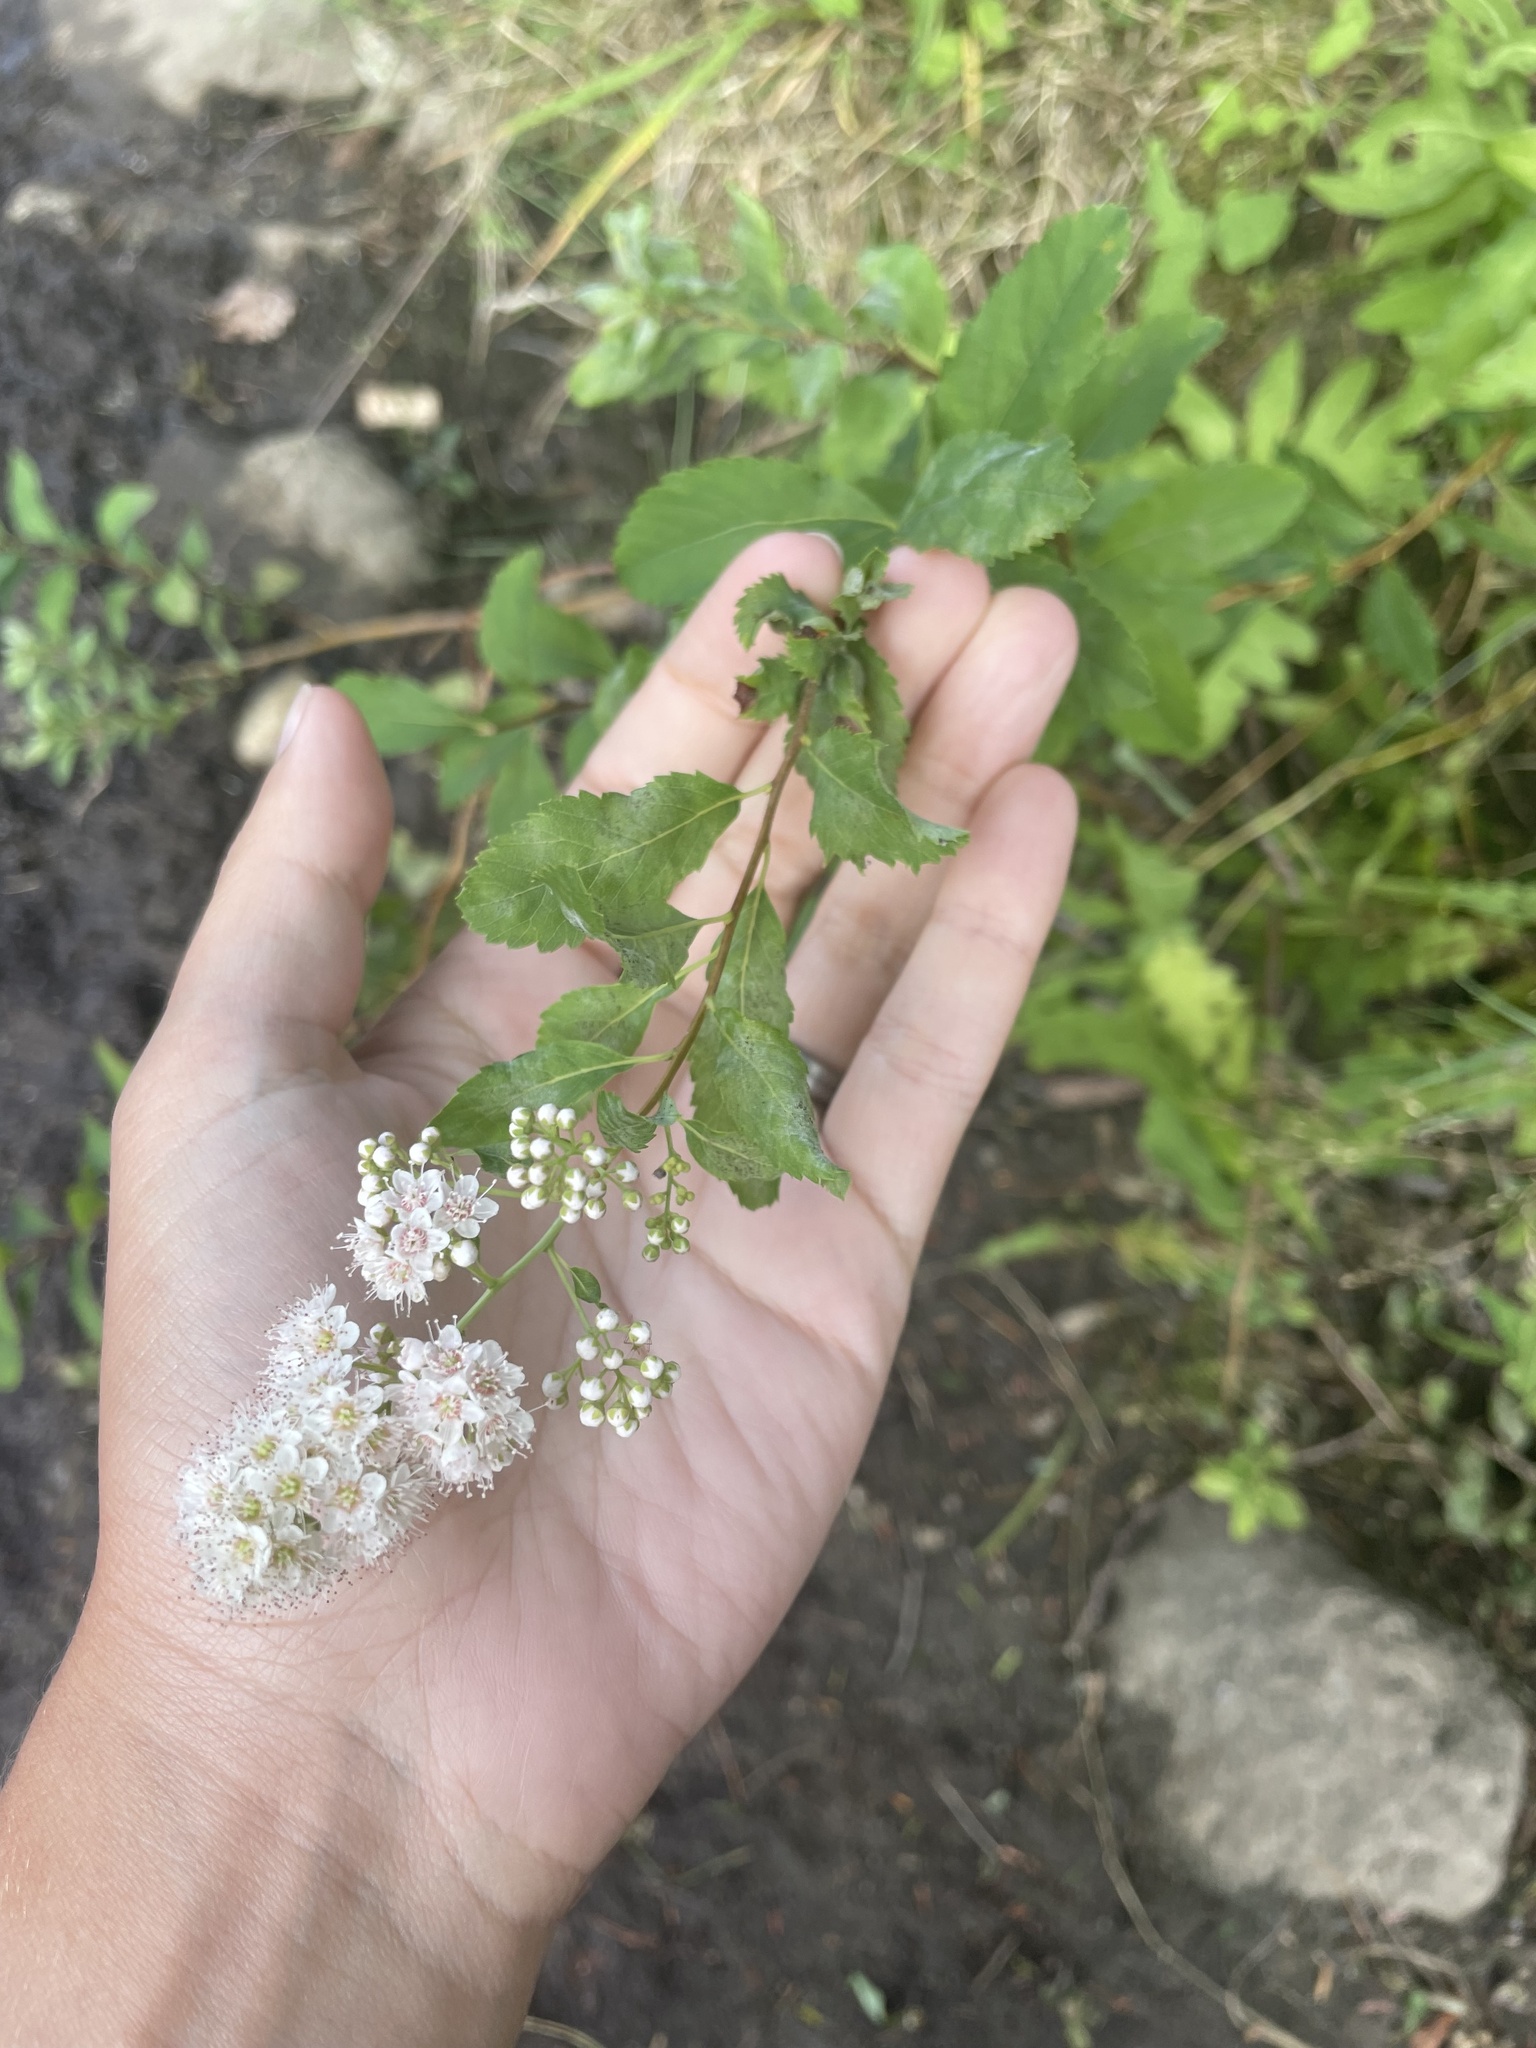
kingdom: Plantae
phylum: Tracheophyta
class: Magnoliopsida
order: Rosales
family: Rosaceae
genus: Spiraea
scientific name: Spiraea alba
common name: Pale bridewort
